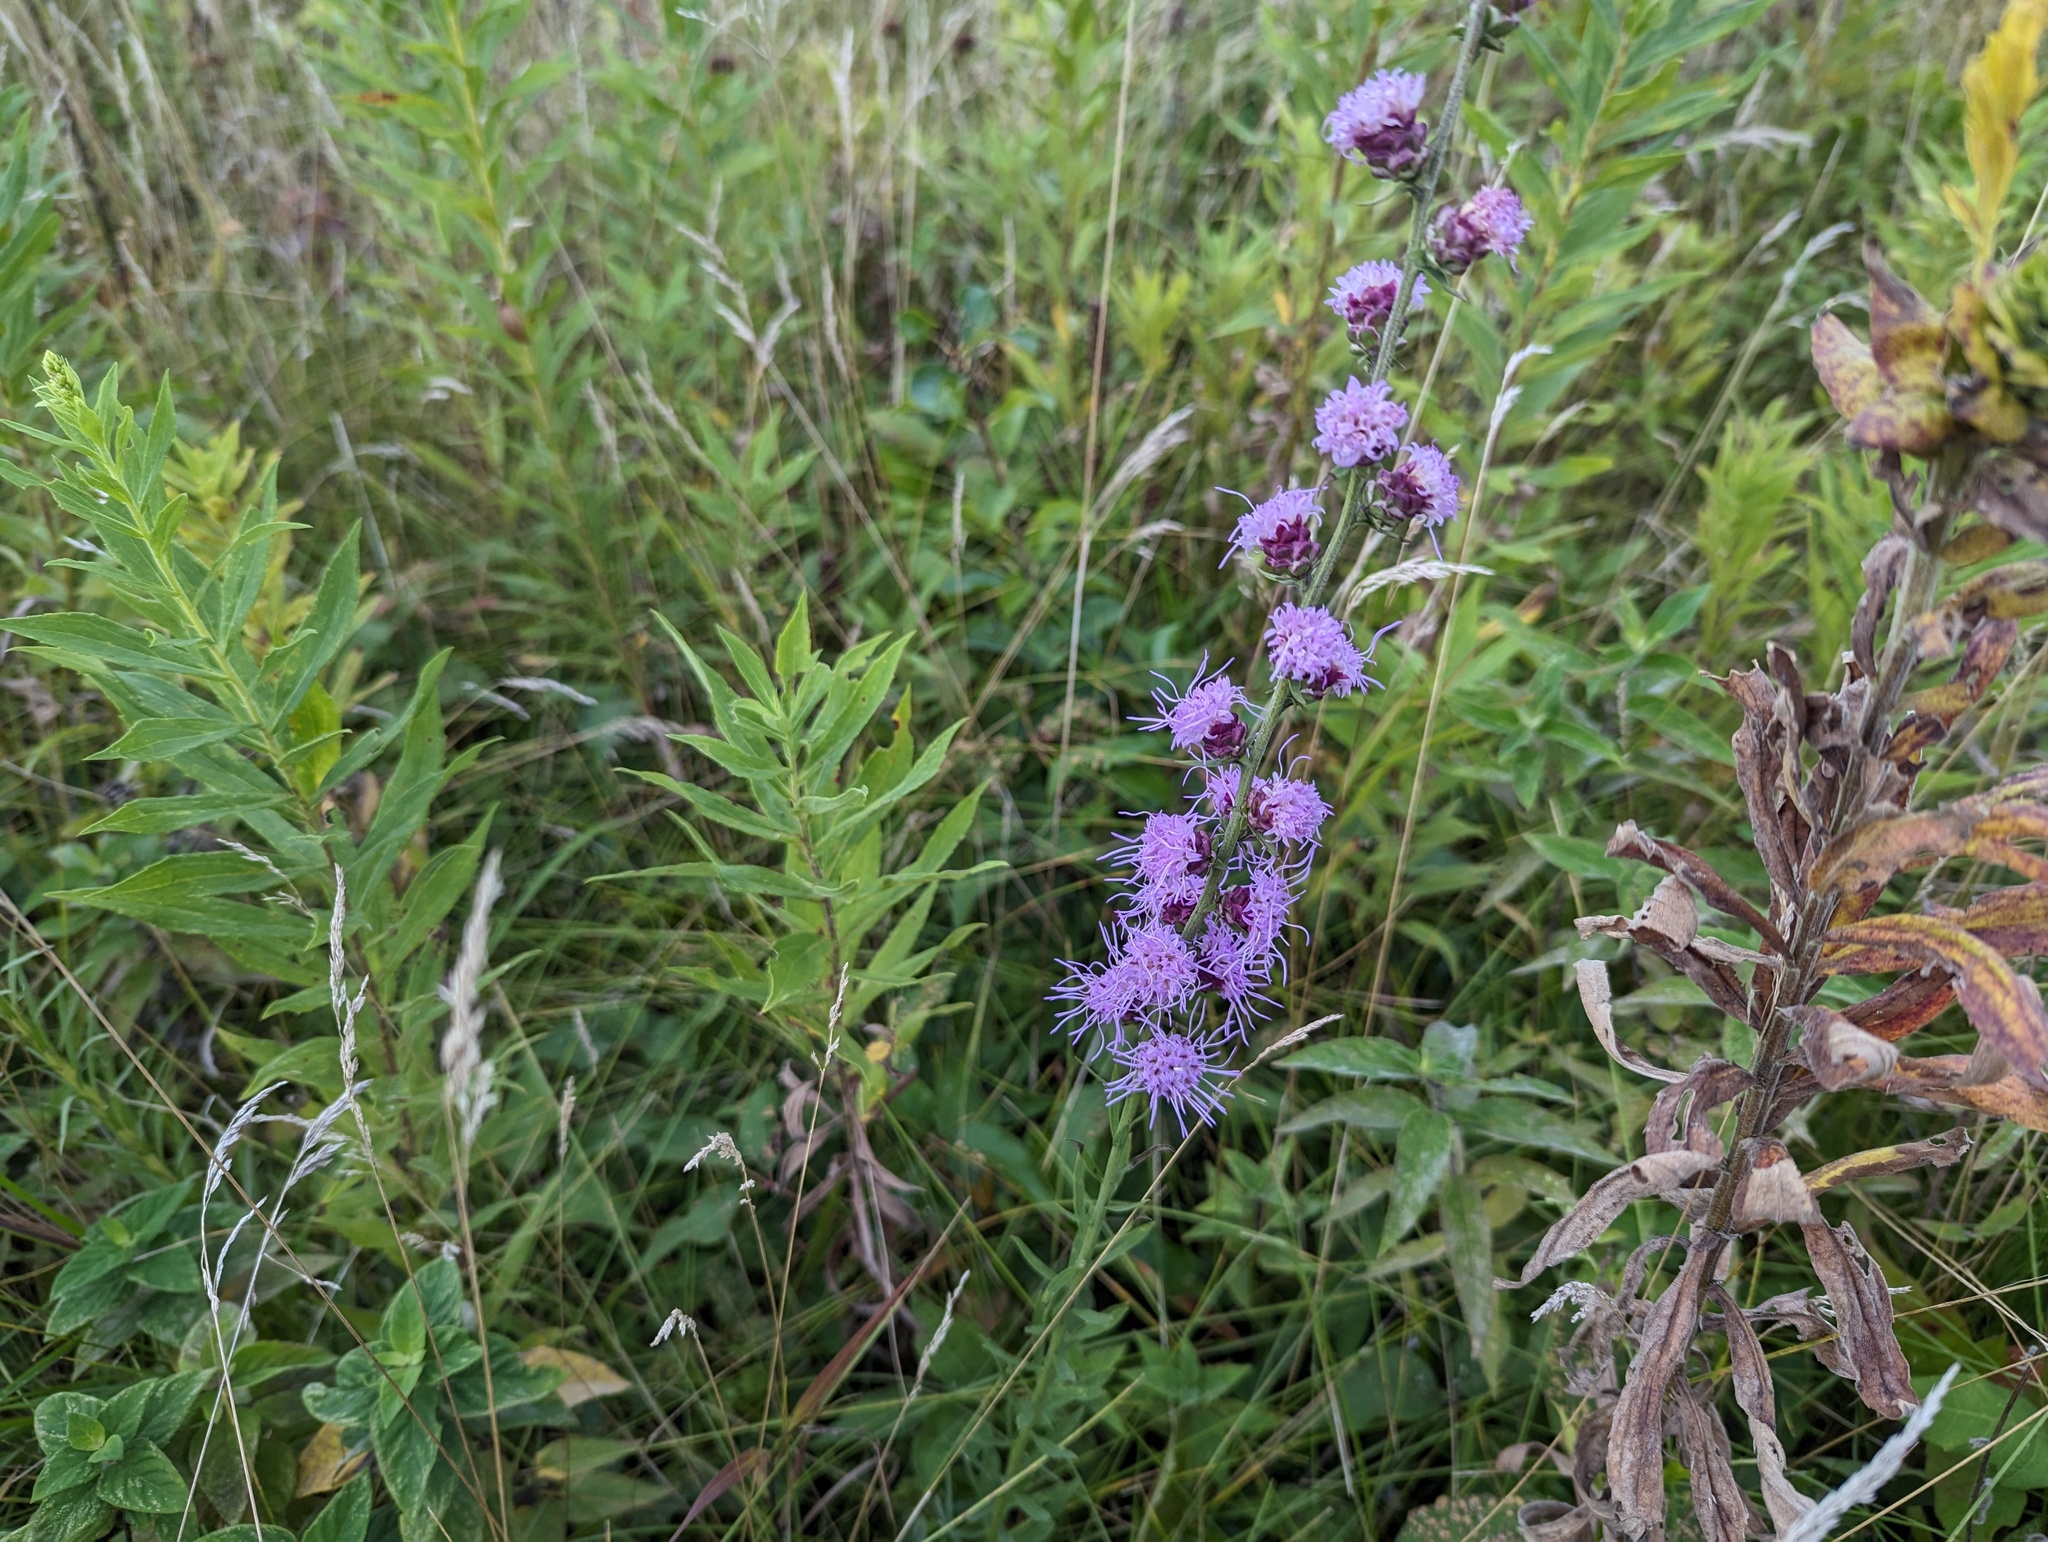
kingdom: Plantae
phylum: Tracheophyta
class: Magnoliopsida
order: Asterales
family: Asteraceae
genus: Liatris
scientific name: Liatris aspera
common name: Lacerate blazing-star
